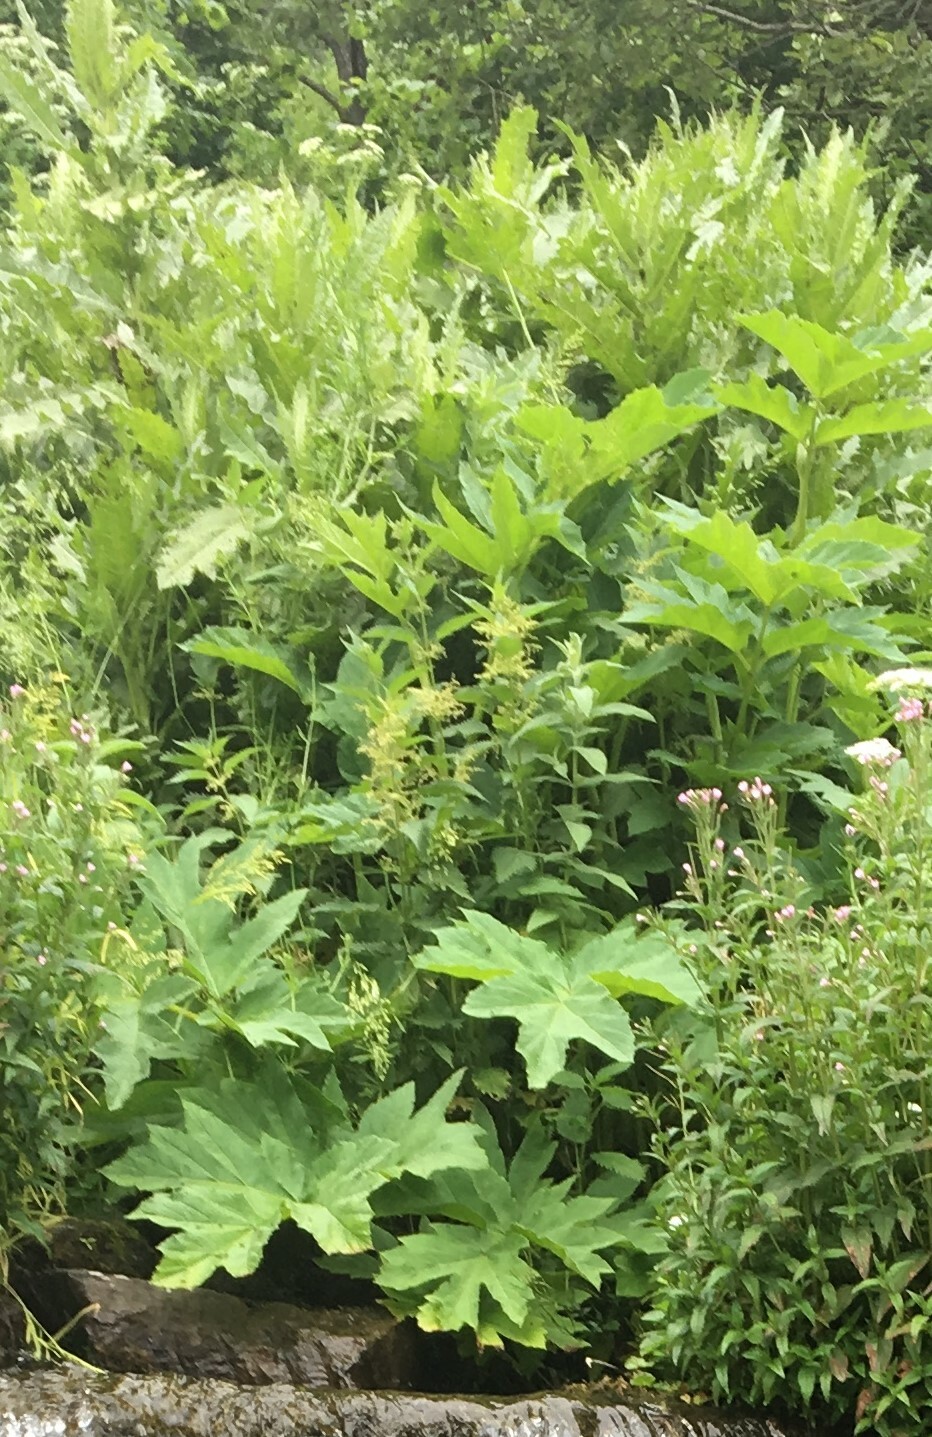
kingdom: Plantae
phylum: Tracheophyta
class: Magnoliopsida
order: Apiales
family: Apiaceae
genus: Heracleum
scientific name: Heracleum
